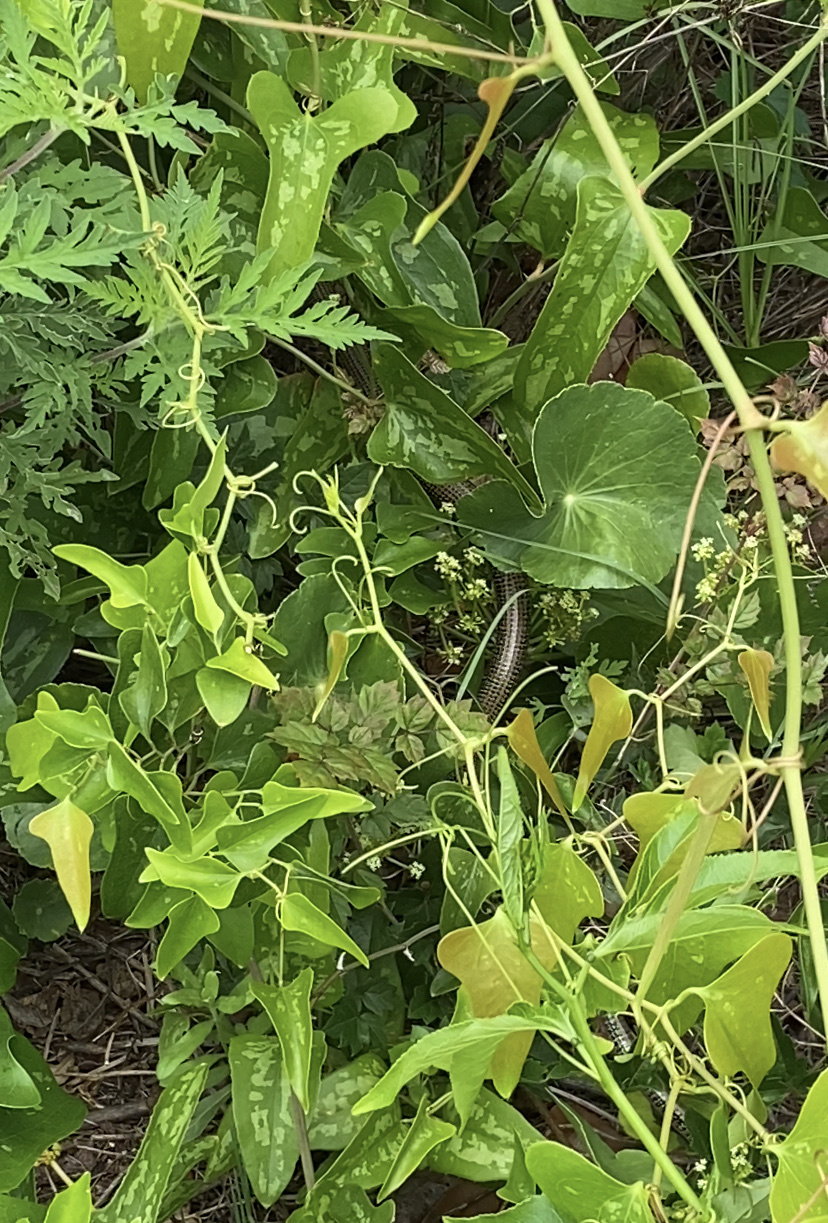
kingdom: Animalia
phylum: Chordata
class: Squamata
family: Anguidae
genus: Ophisaurus
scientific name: Ophisaurus ventralis
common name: Eastern glass lizard
